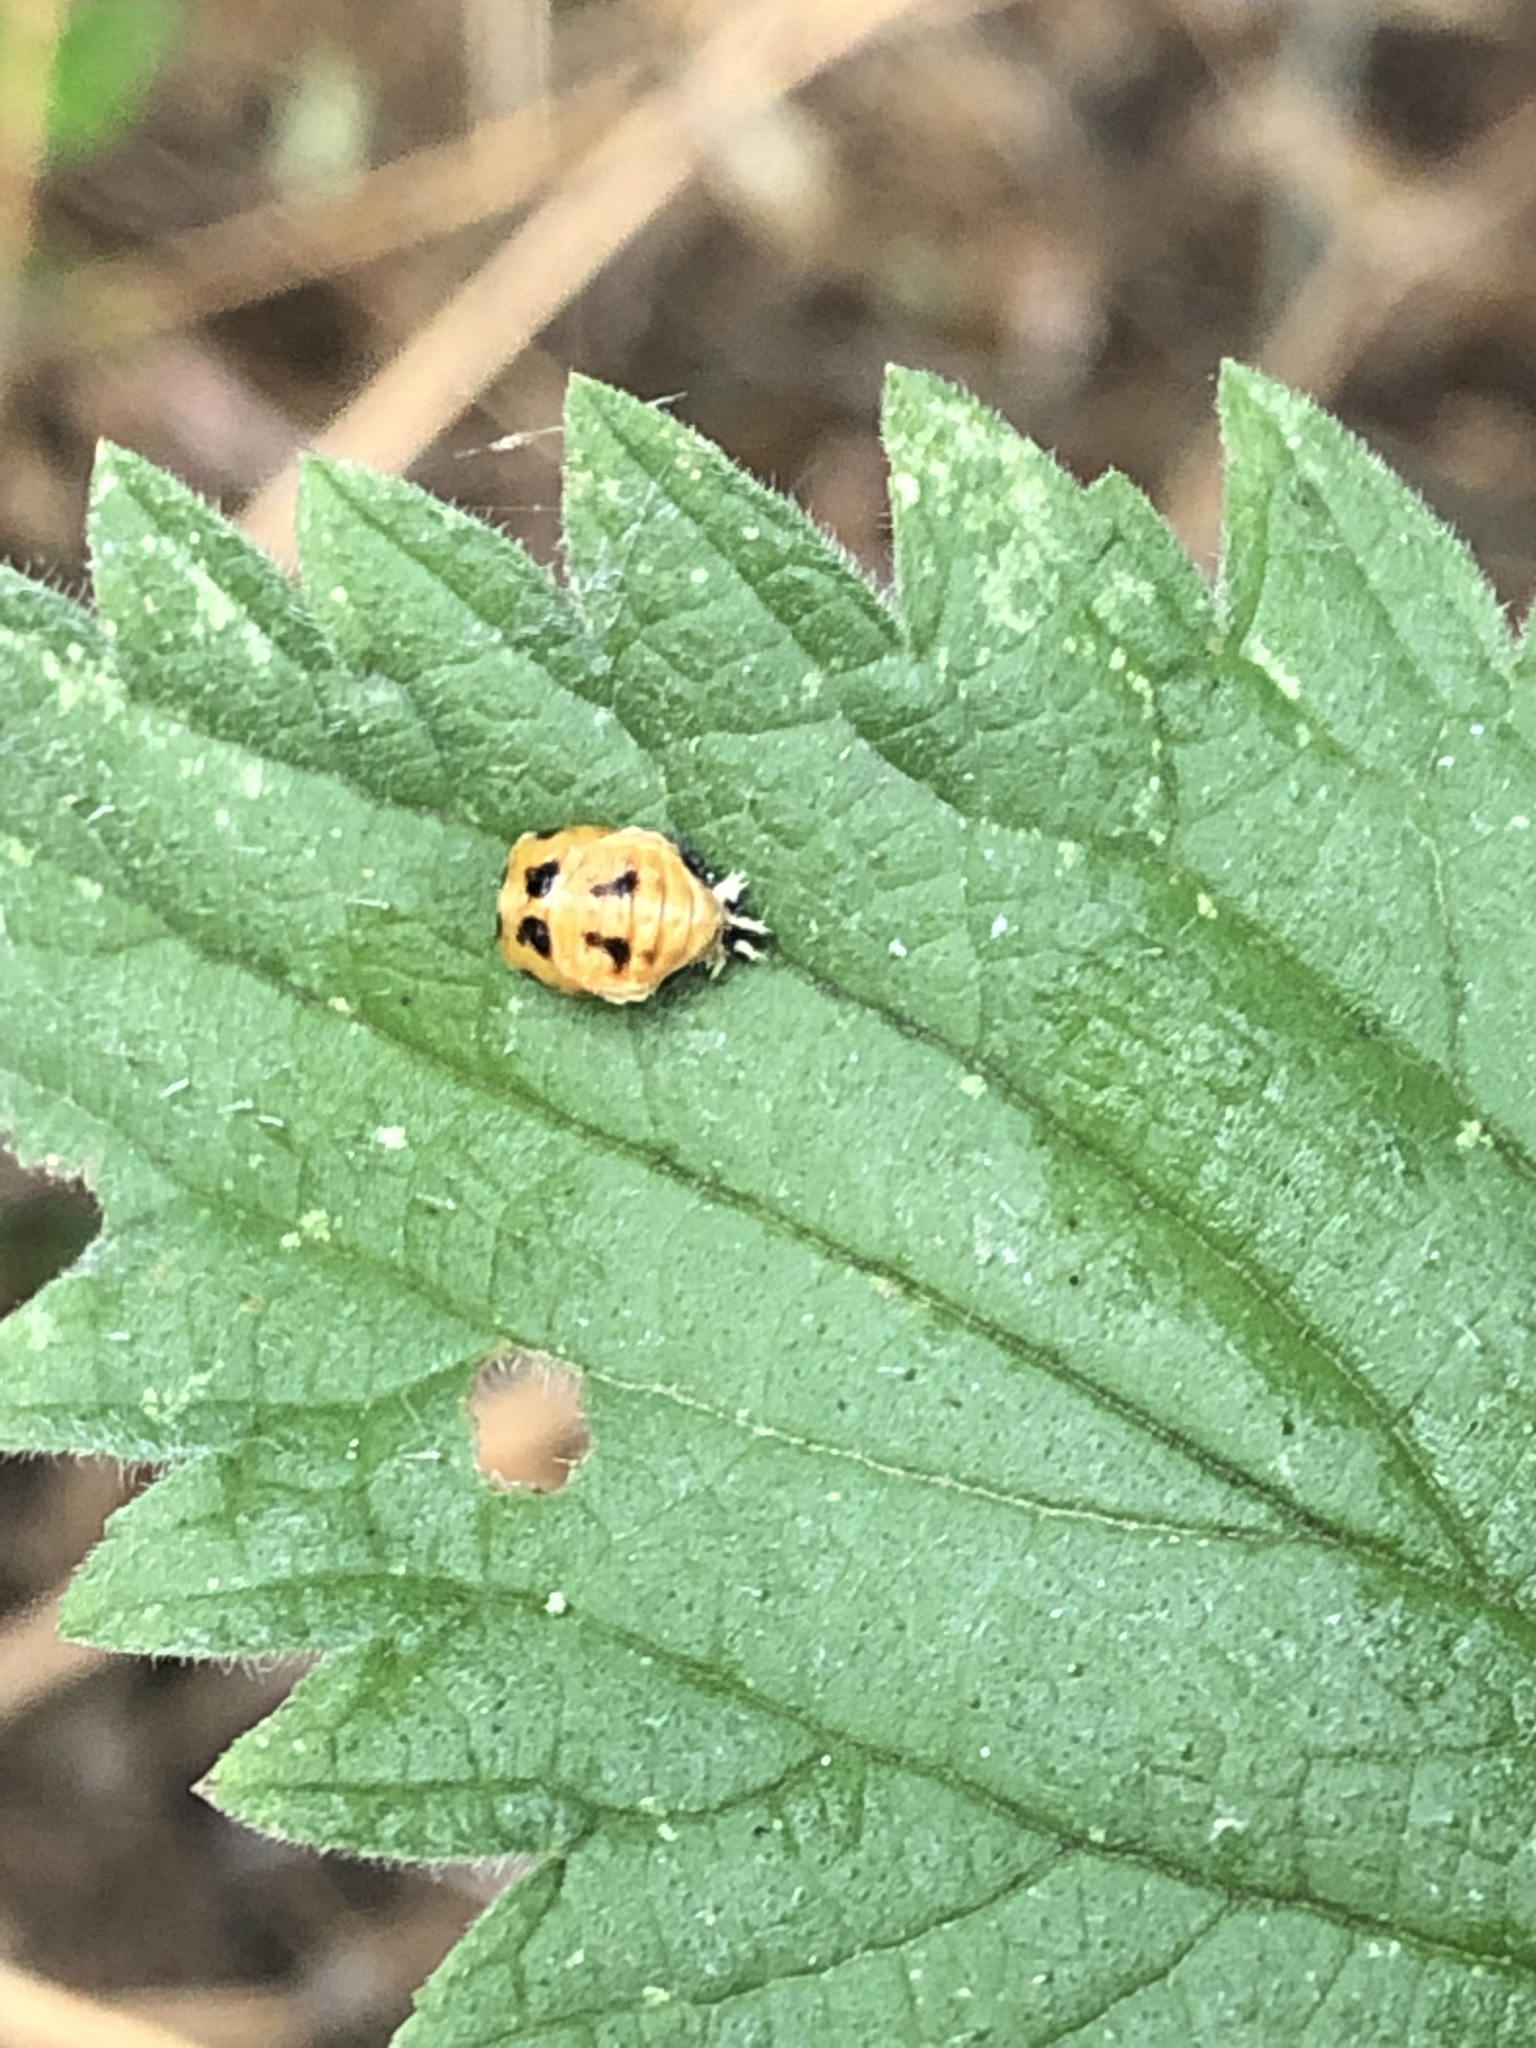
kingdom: Animalia
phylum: Arthropoda
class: Insecta
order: Coleoptera
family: Coccinellidae
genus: Harmonia
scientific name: Harmonia axyridis
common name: Harlequin ladybird
